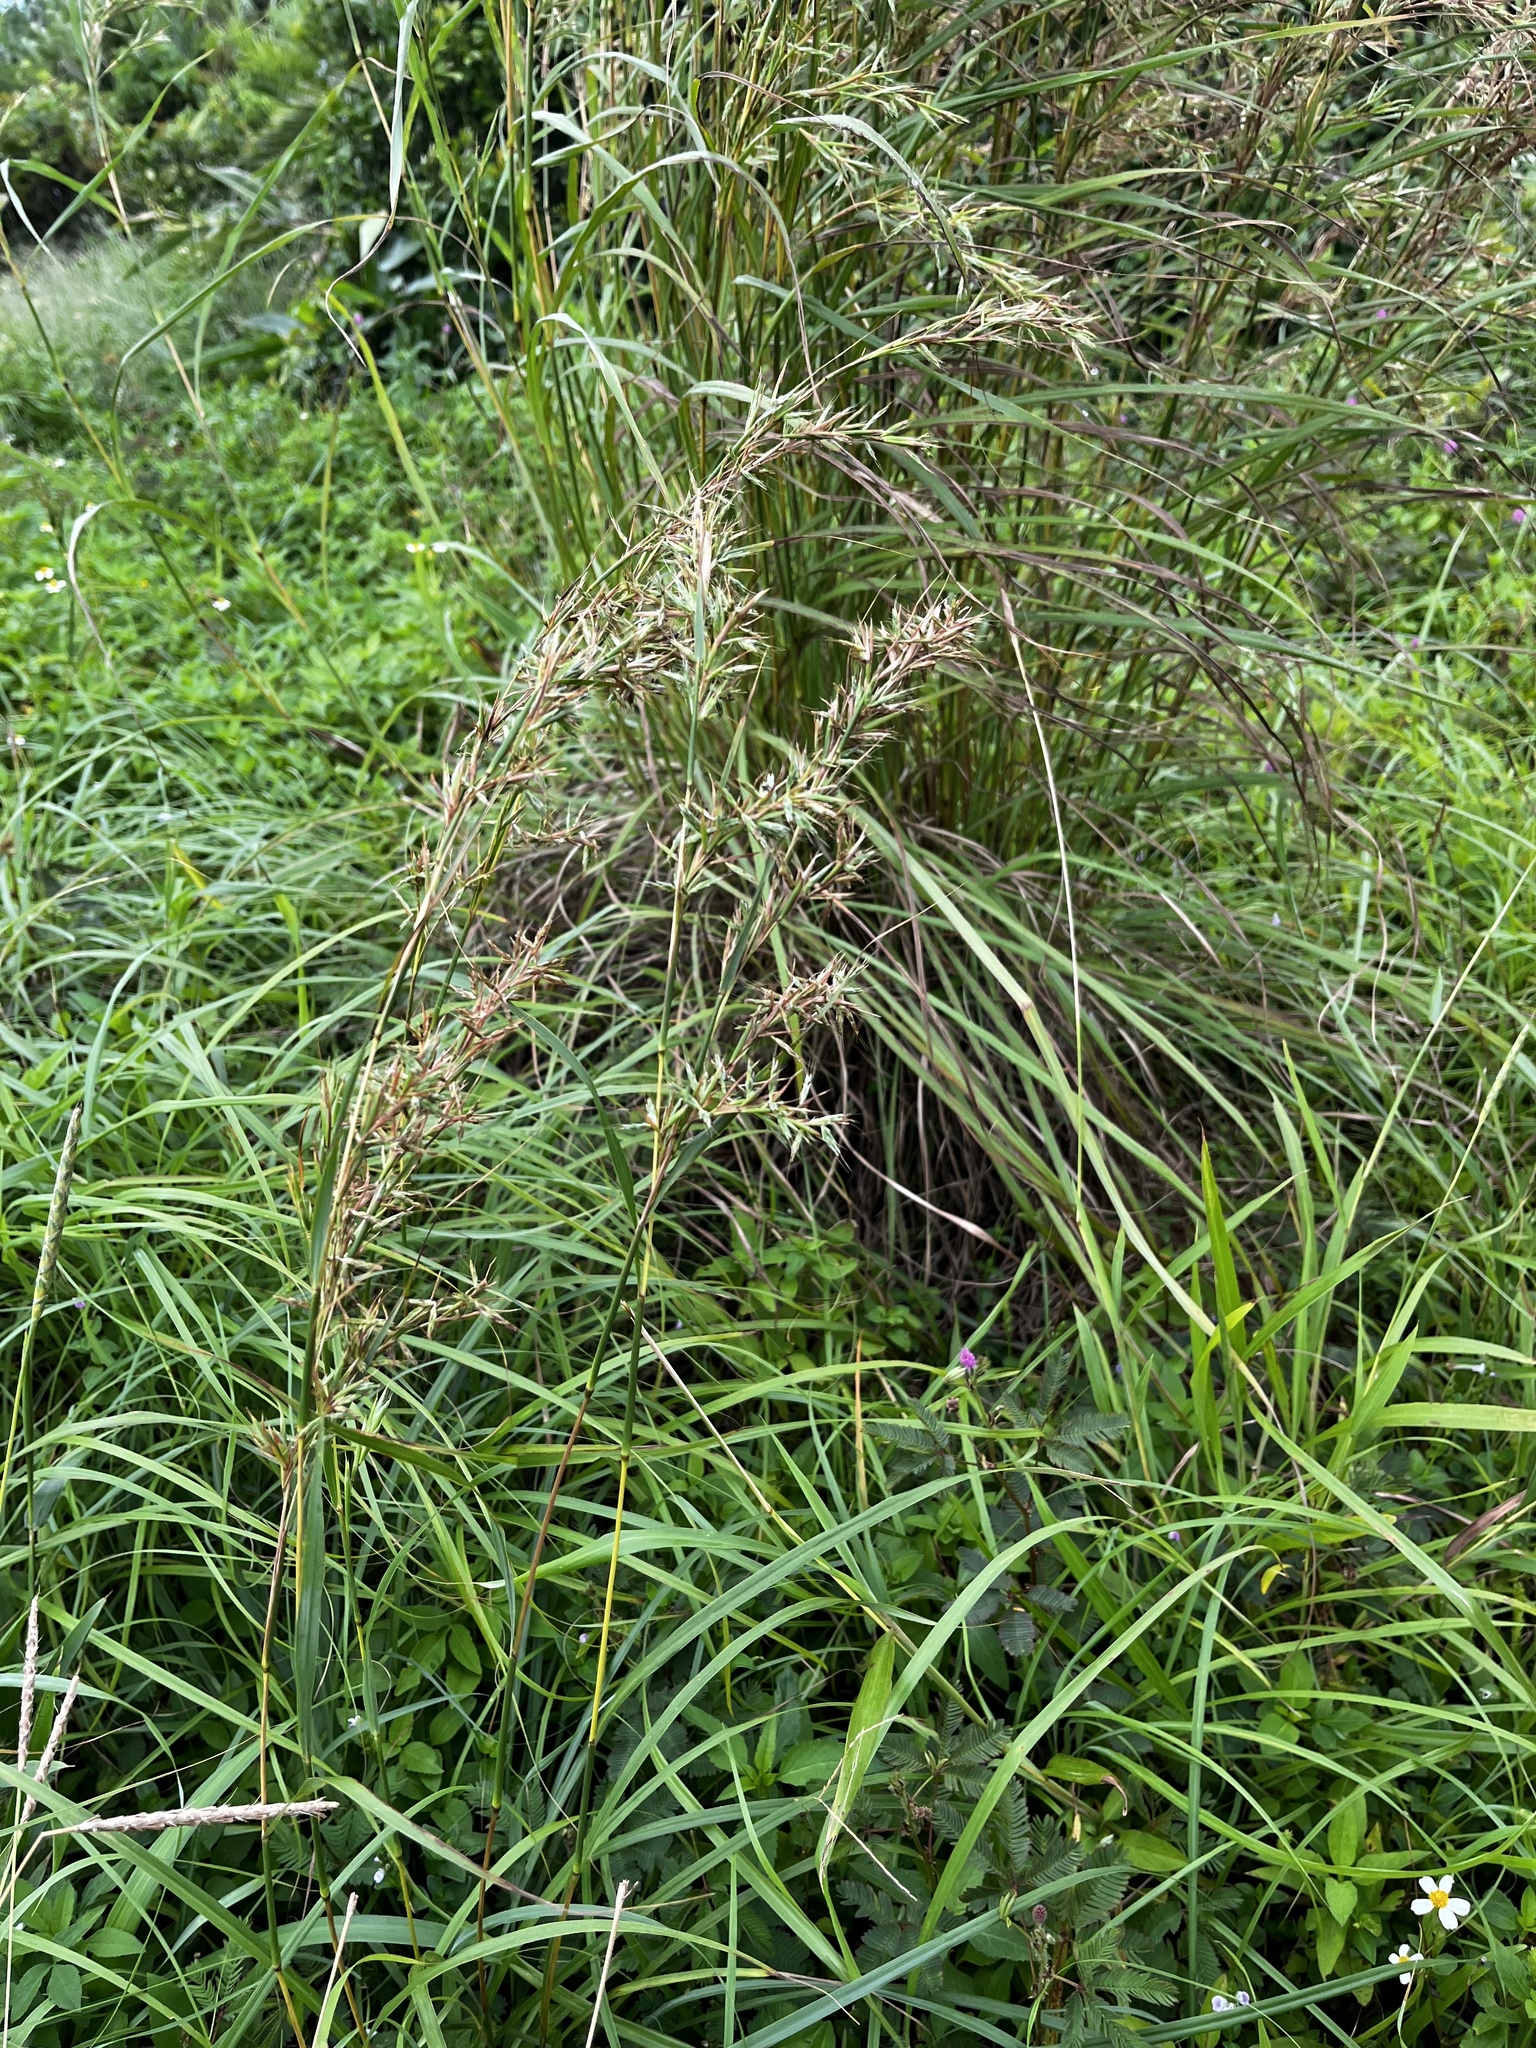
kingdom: Plantae
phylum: Tracheophyta
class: Liliopsida
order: Poales
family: Poaceae
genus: Cymbopogon
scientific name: Cymbopogon tortilis
